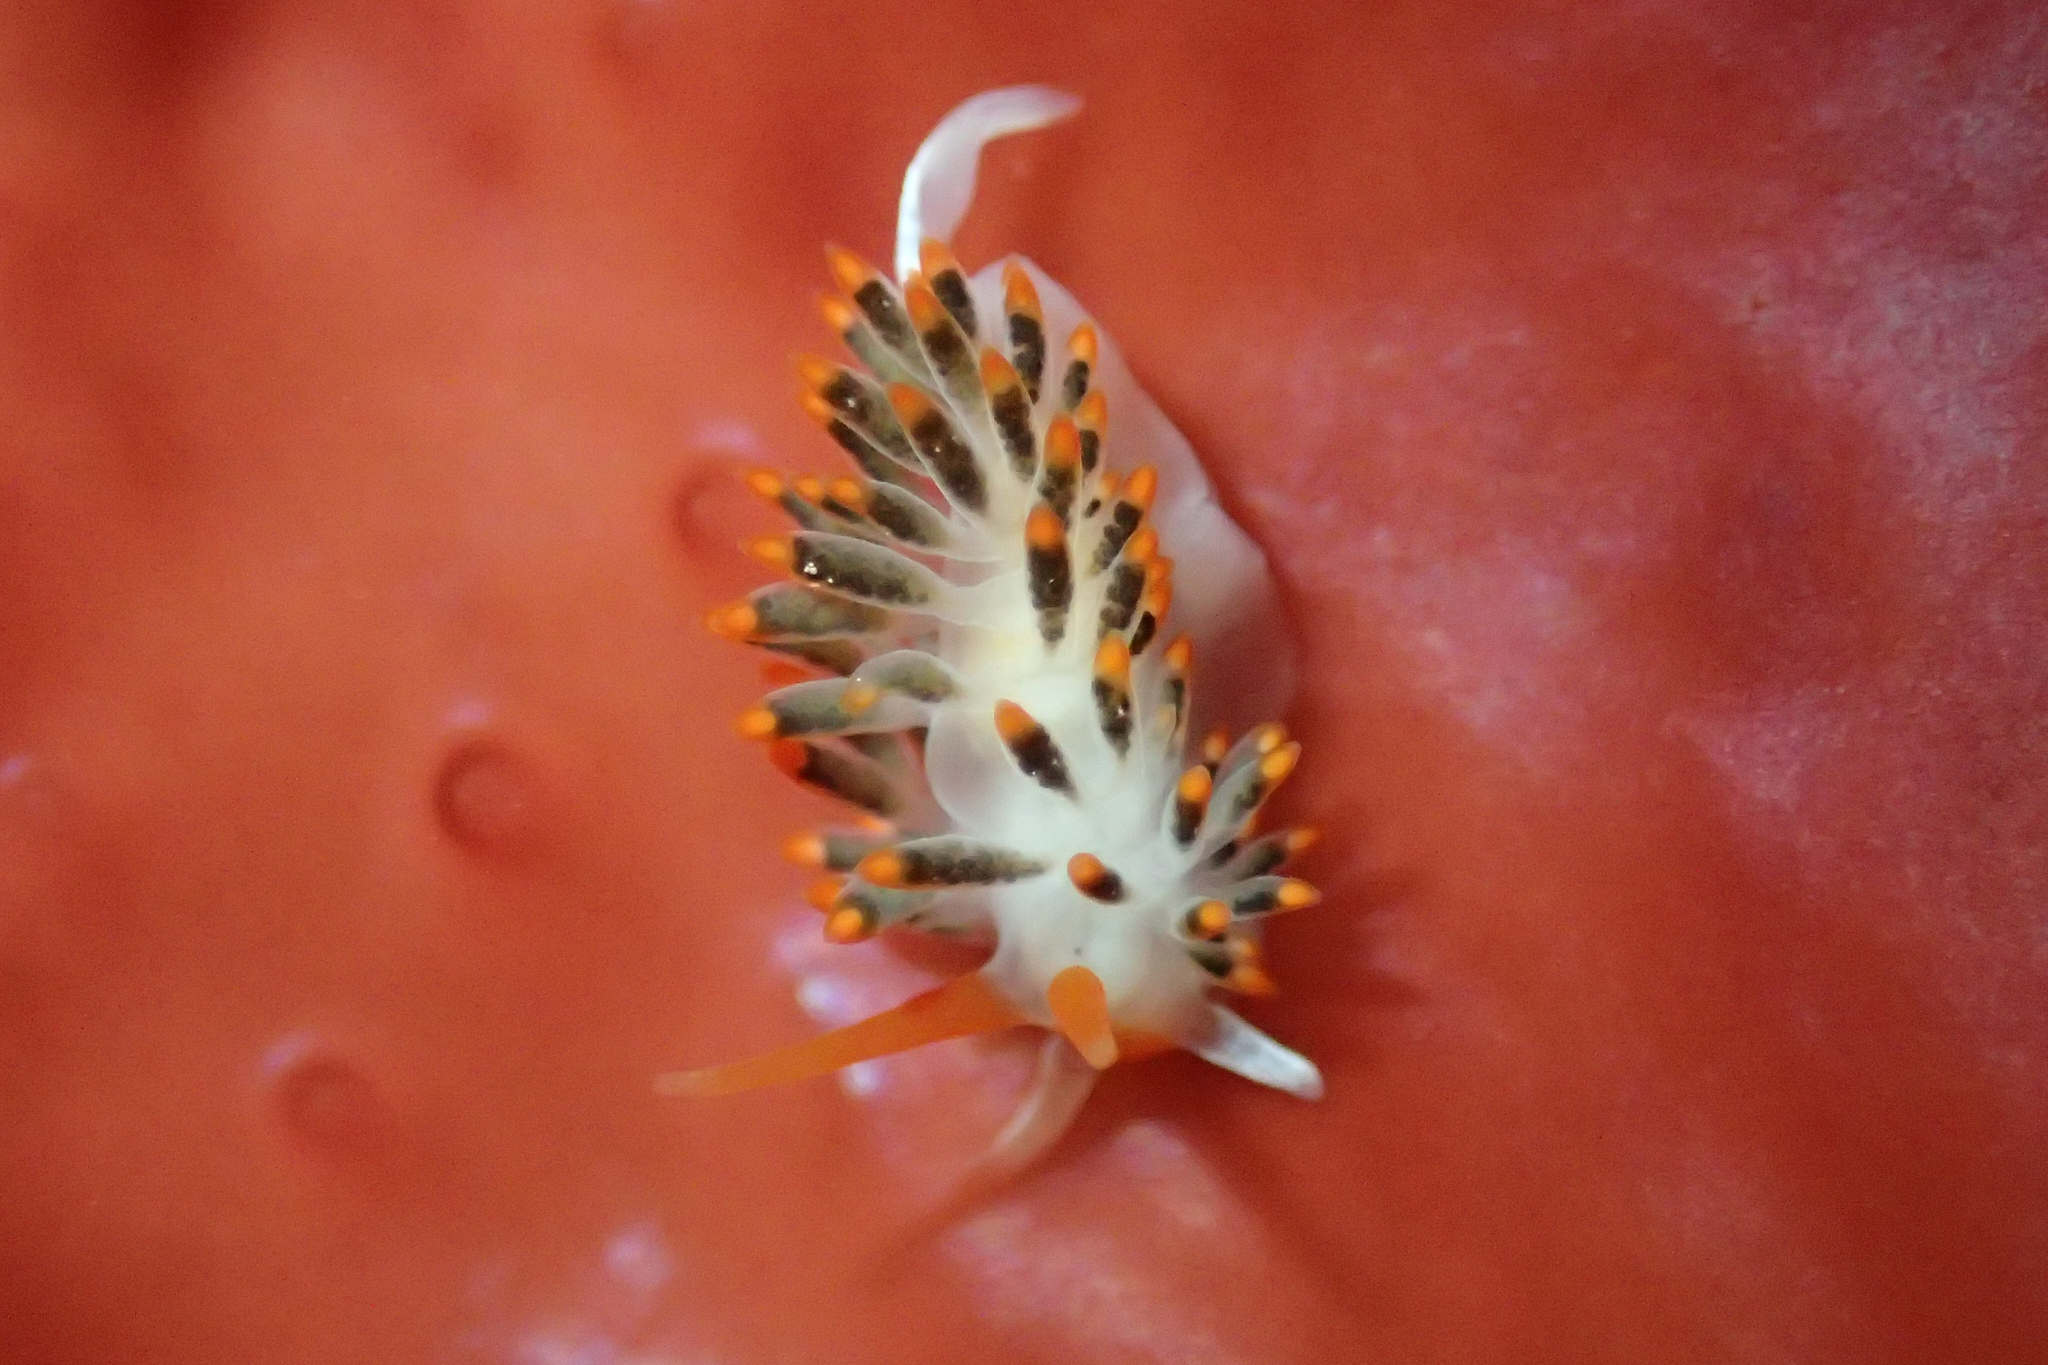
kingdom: Animalia
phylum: Mollusca
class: Gastropoda
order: Nudibranchia
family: Trinchesiidae
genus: Diaphoreolis
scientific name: Diaphoreolis lagunae
